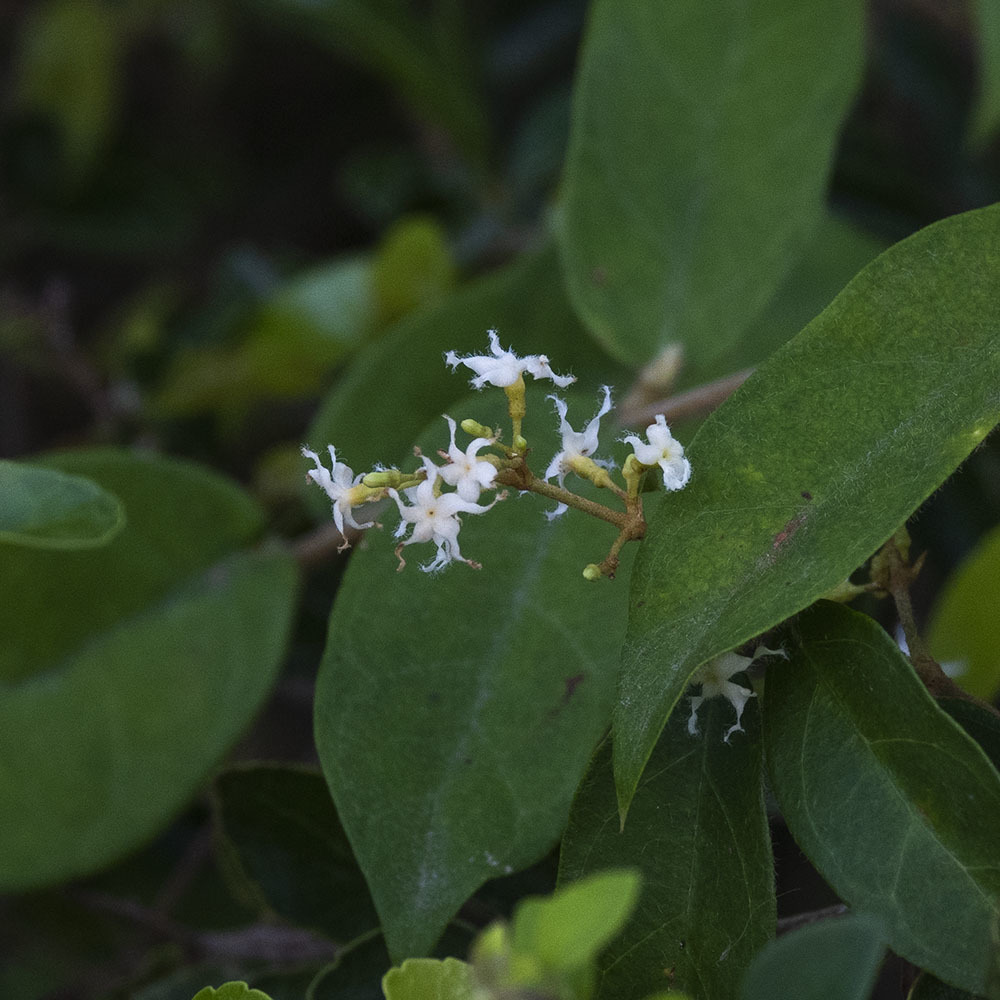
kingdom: Plantae
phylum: Tracheophyta
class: Magnoliopsida
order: Gentianales
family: Apocynaceae
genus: Ichnocarpus
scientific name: Ichnocarpus frutescens
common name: Ichnocarpus
